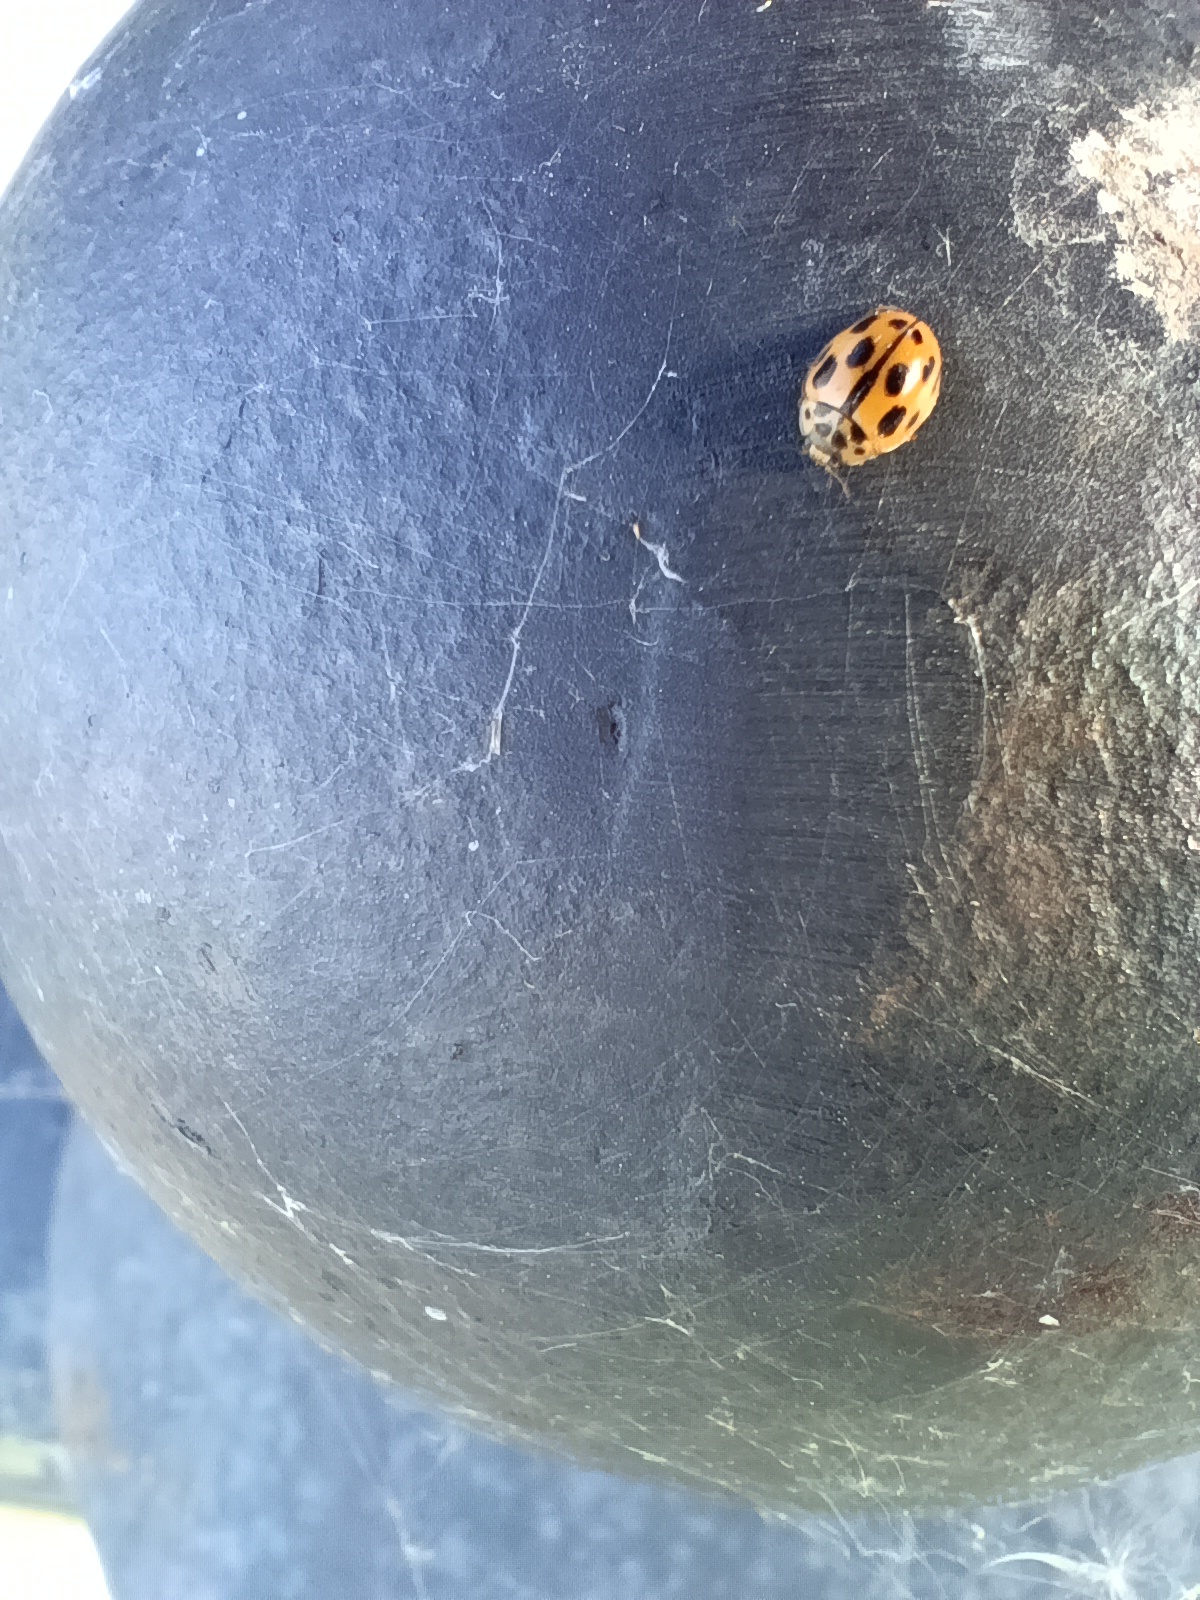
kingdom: Animalia
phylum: Arthropoda
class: Insecta
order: Coleoptera
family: Coccinellidae
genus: Propylaea
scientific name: Propylaea quatuordecimpunctata
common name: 14-spotted ladybird beetle
